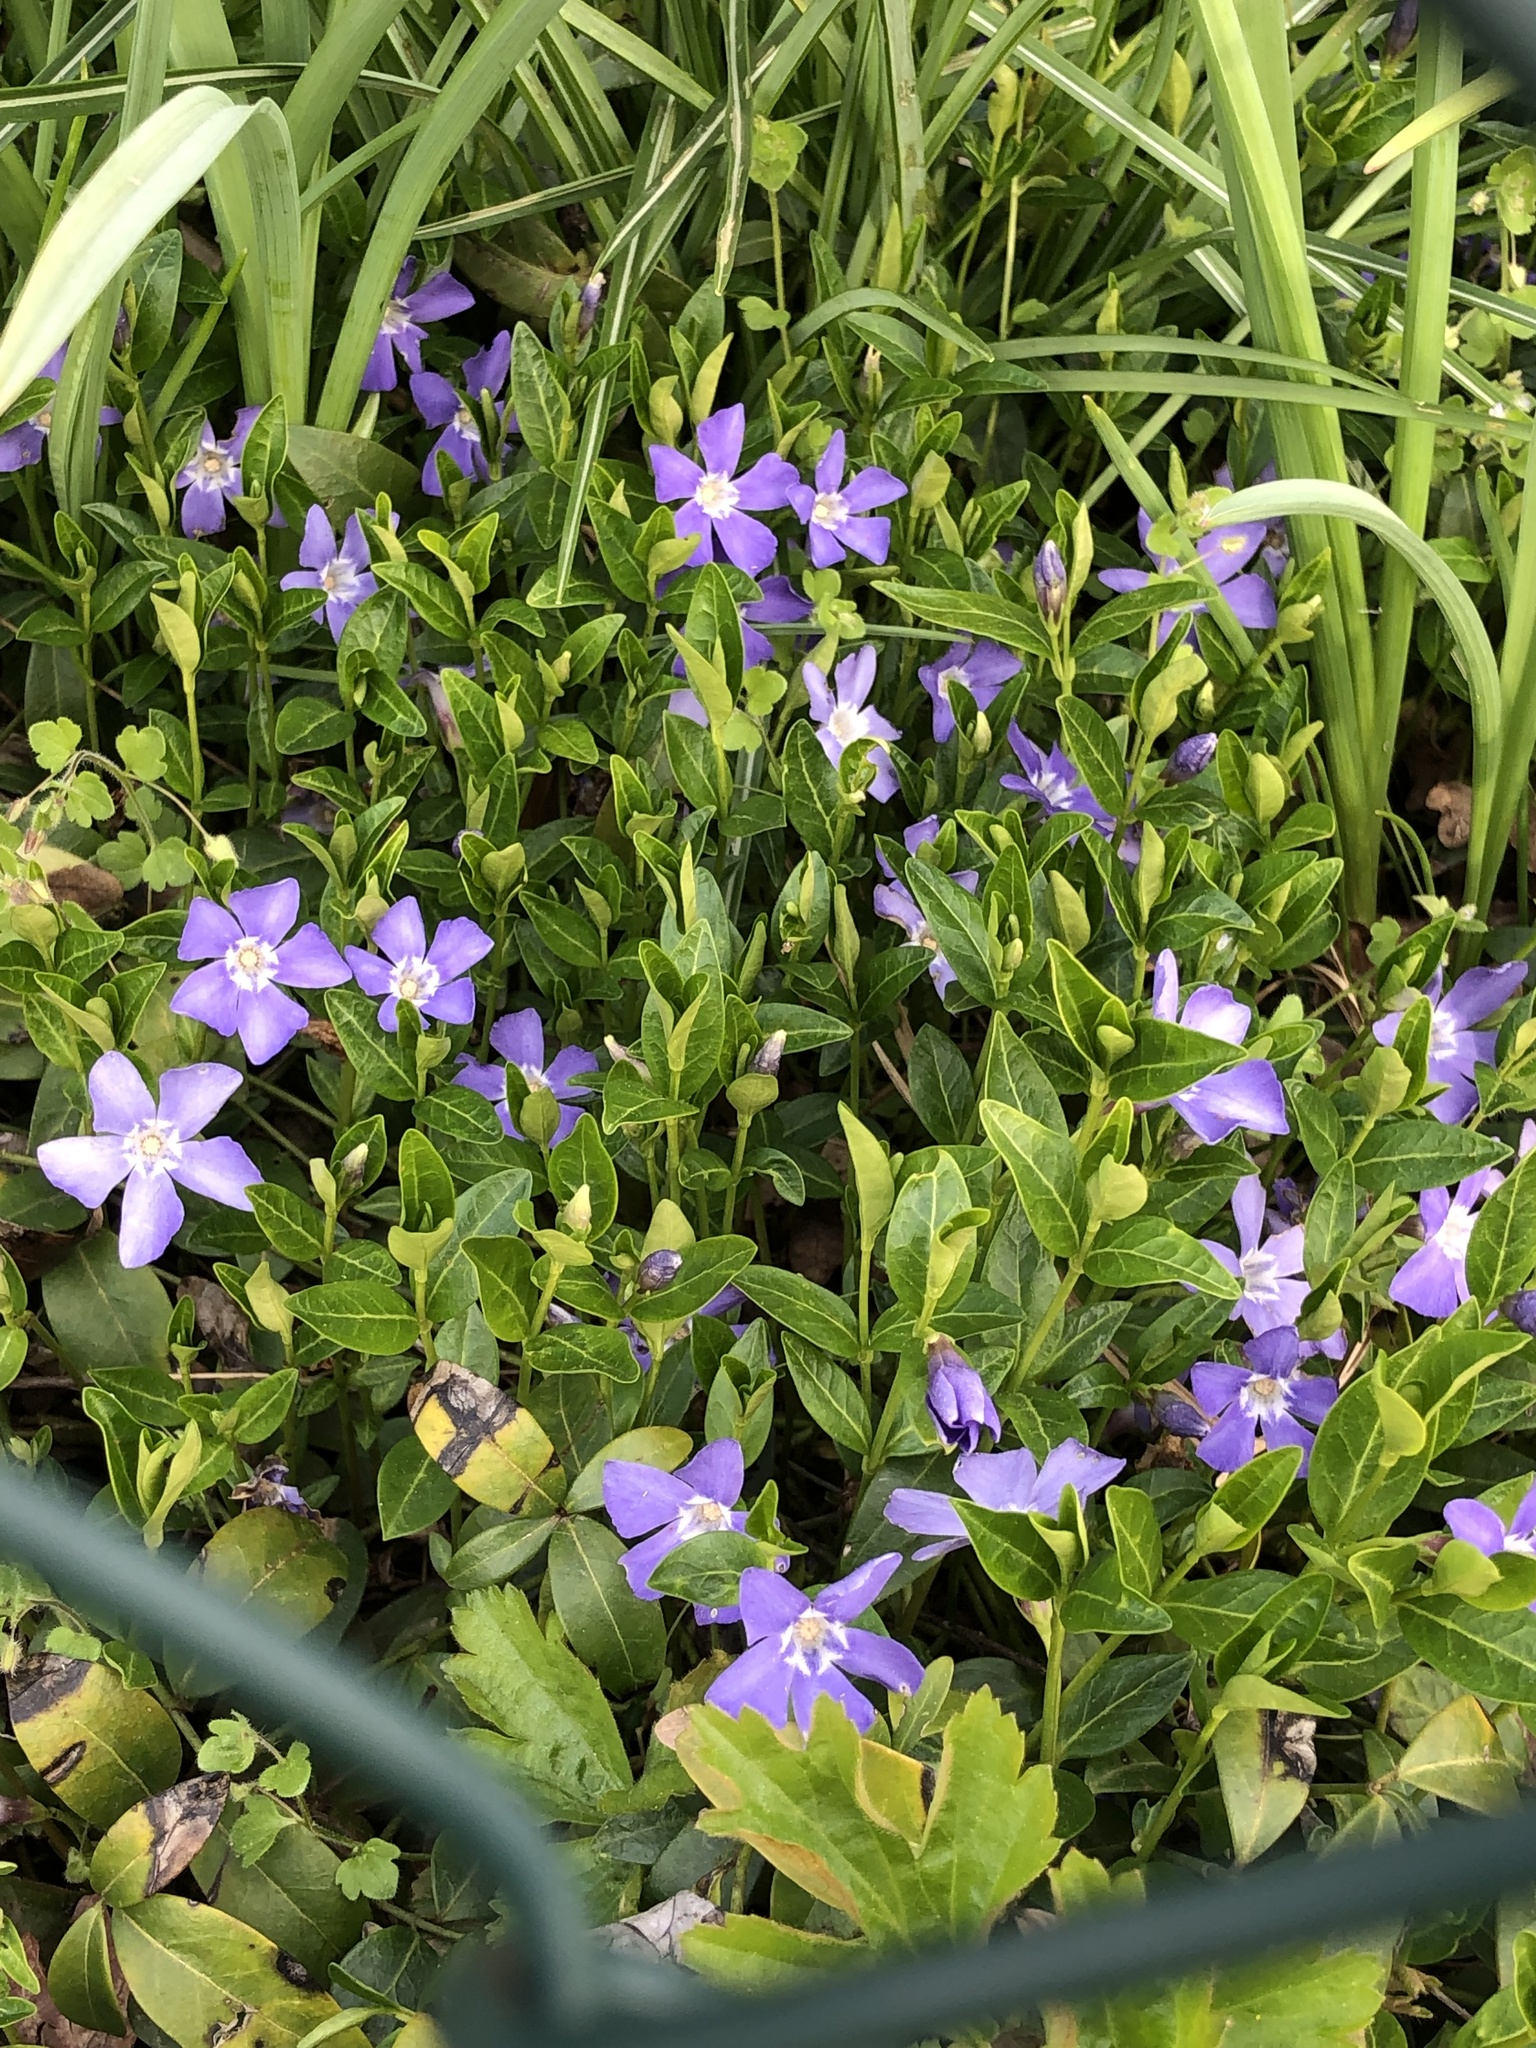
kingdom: Plantae
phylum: Tracheophyta
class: Magnoliopsida
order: Gentianales
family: Apocynaceae
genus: Vinca
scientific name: Vinca minor
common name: Lesser periwinkle
